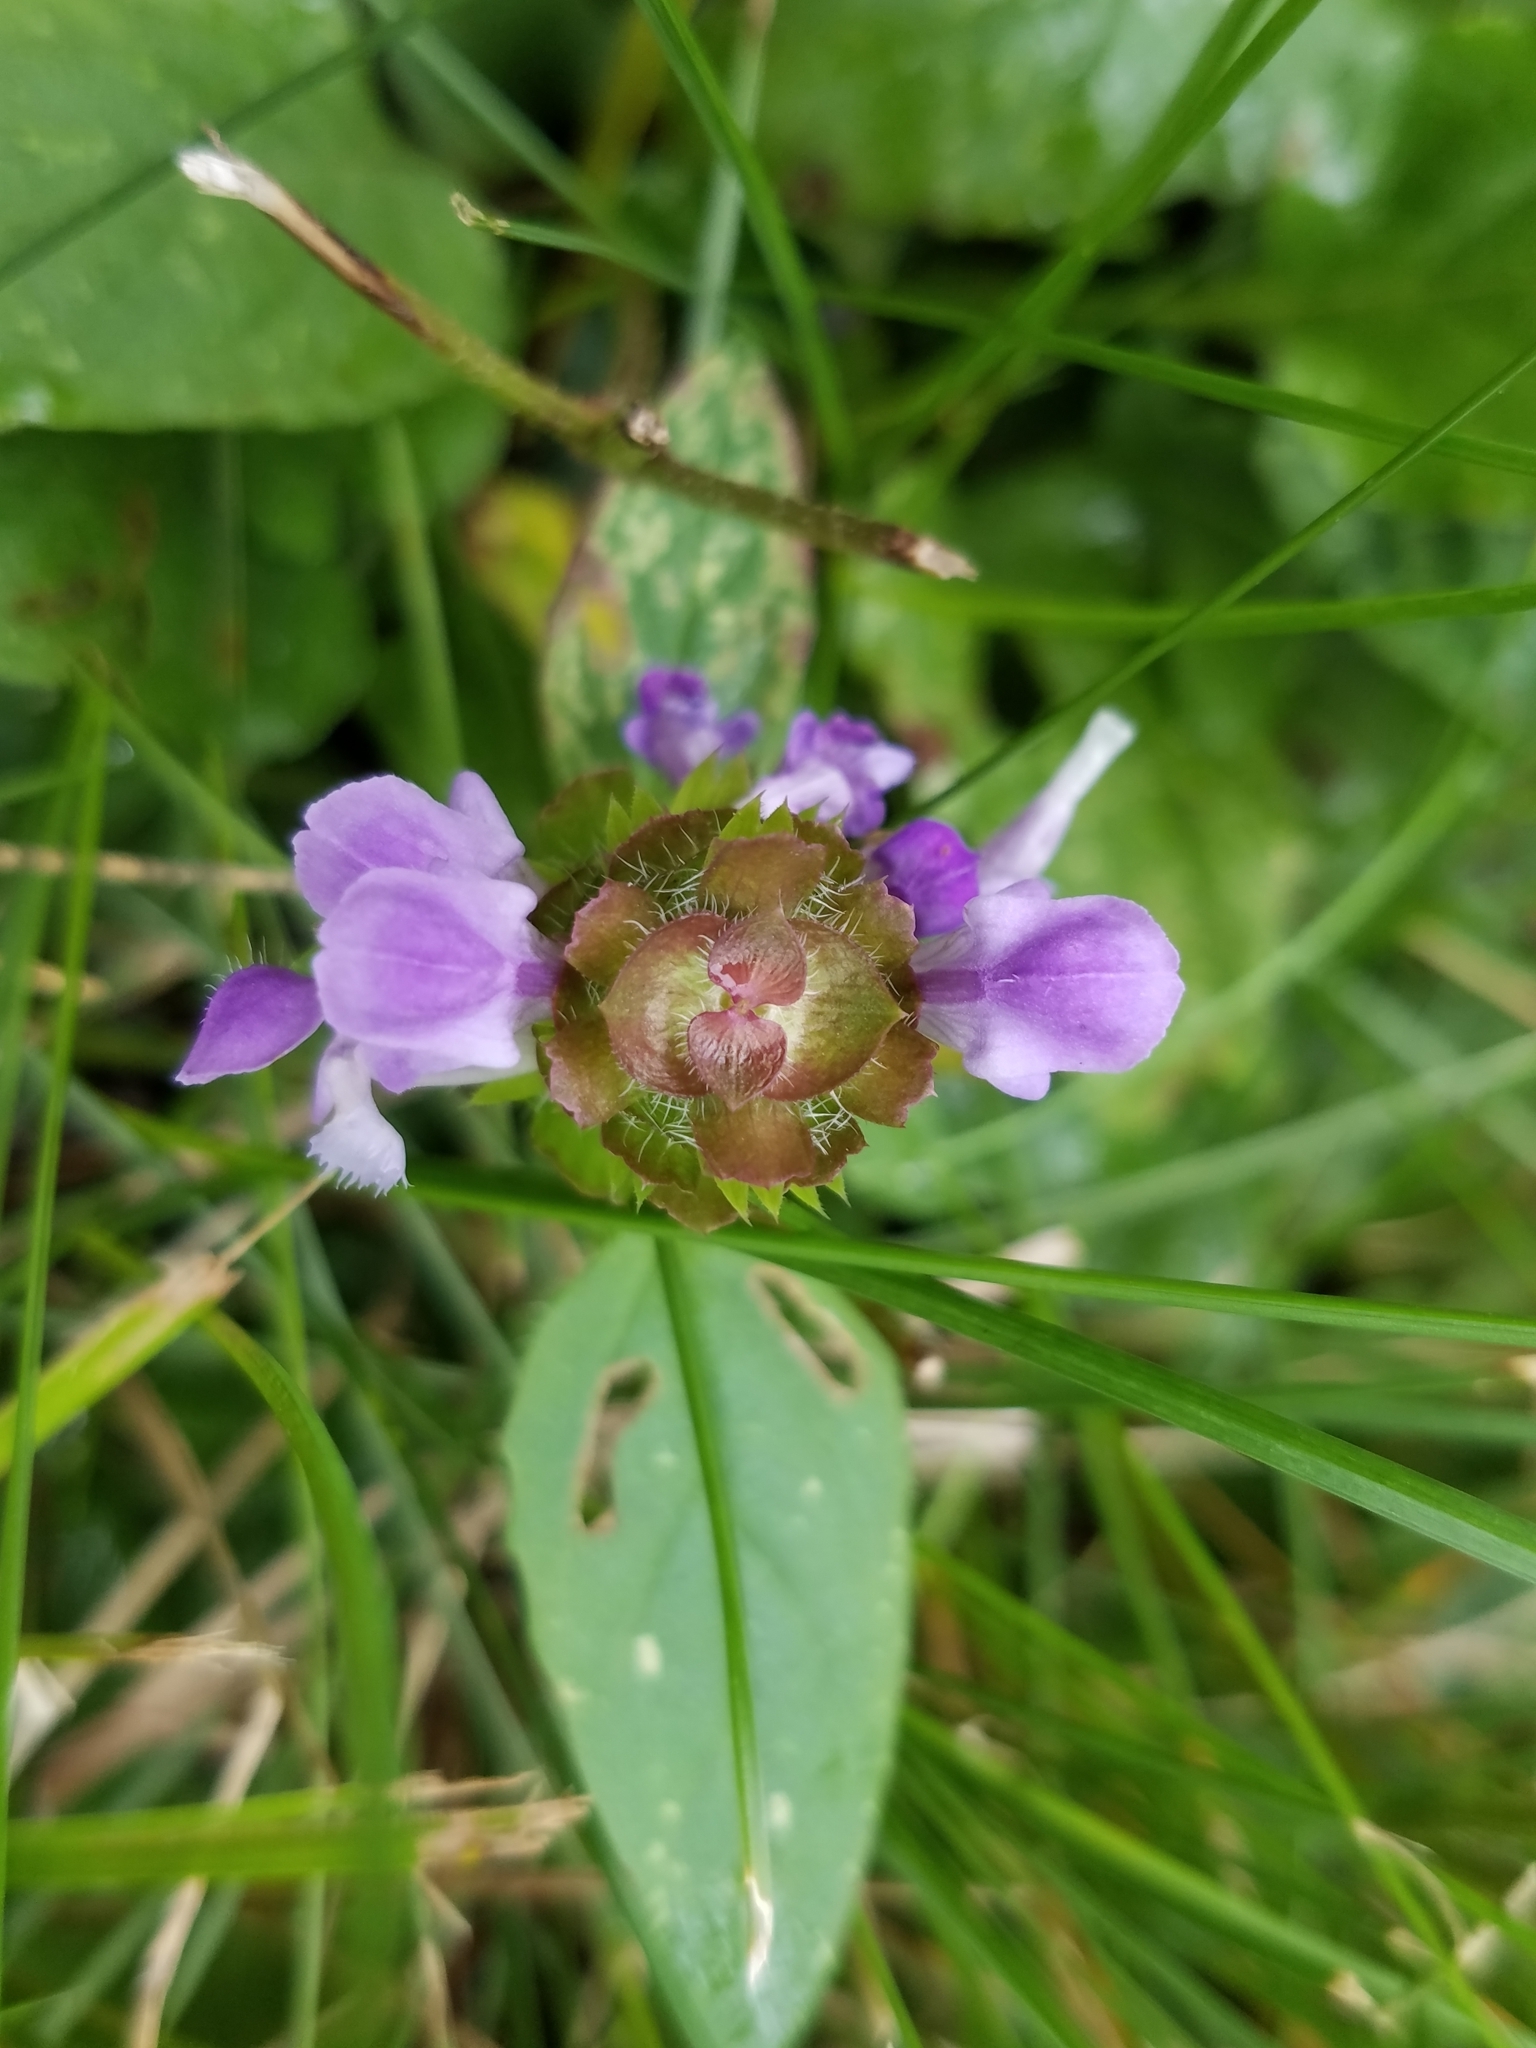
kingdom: Plantae
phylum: Tracheophyta
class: Magnoliopsida
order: Lamiales
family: Lamiaceae
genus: Prunella
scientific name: Prunella vulgaris
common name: Heal-all
